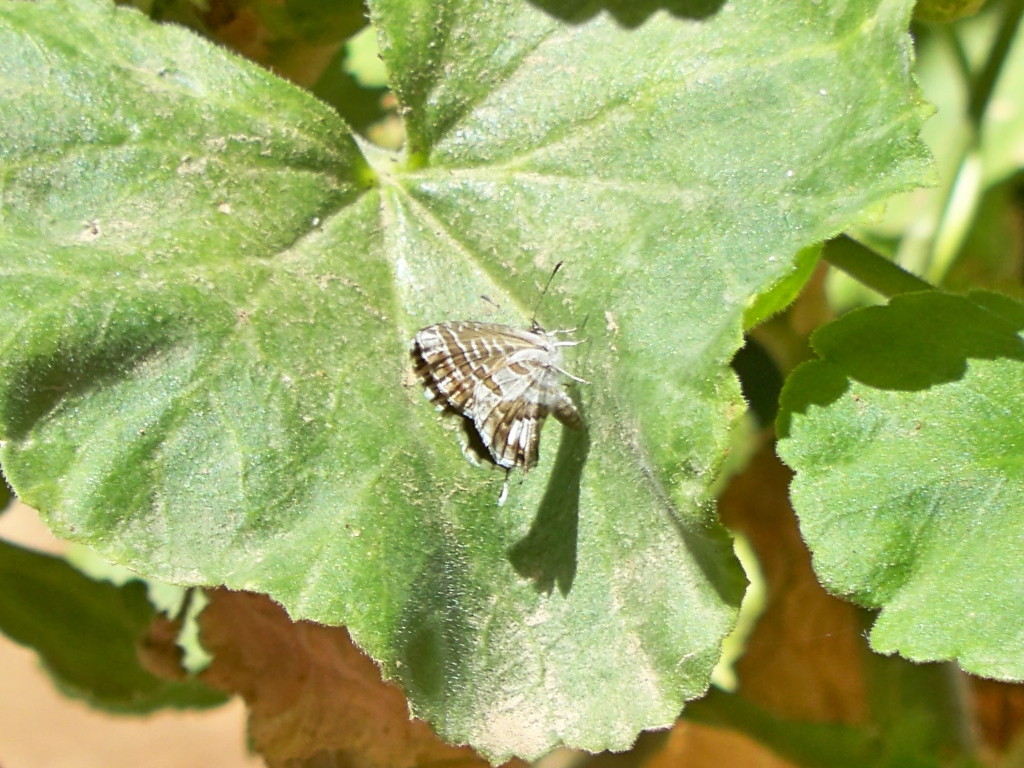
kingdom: Animalia
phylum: Arthropoda
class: Insecta
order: Lepidoptera
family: Lycaenidae
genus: Cacyreus
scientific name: Cacyreus marshalli
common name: Geranium bronze
